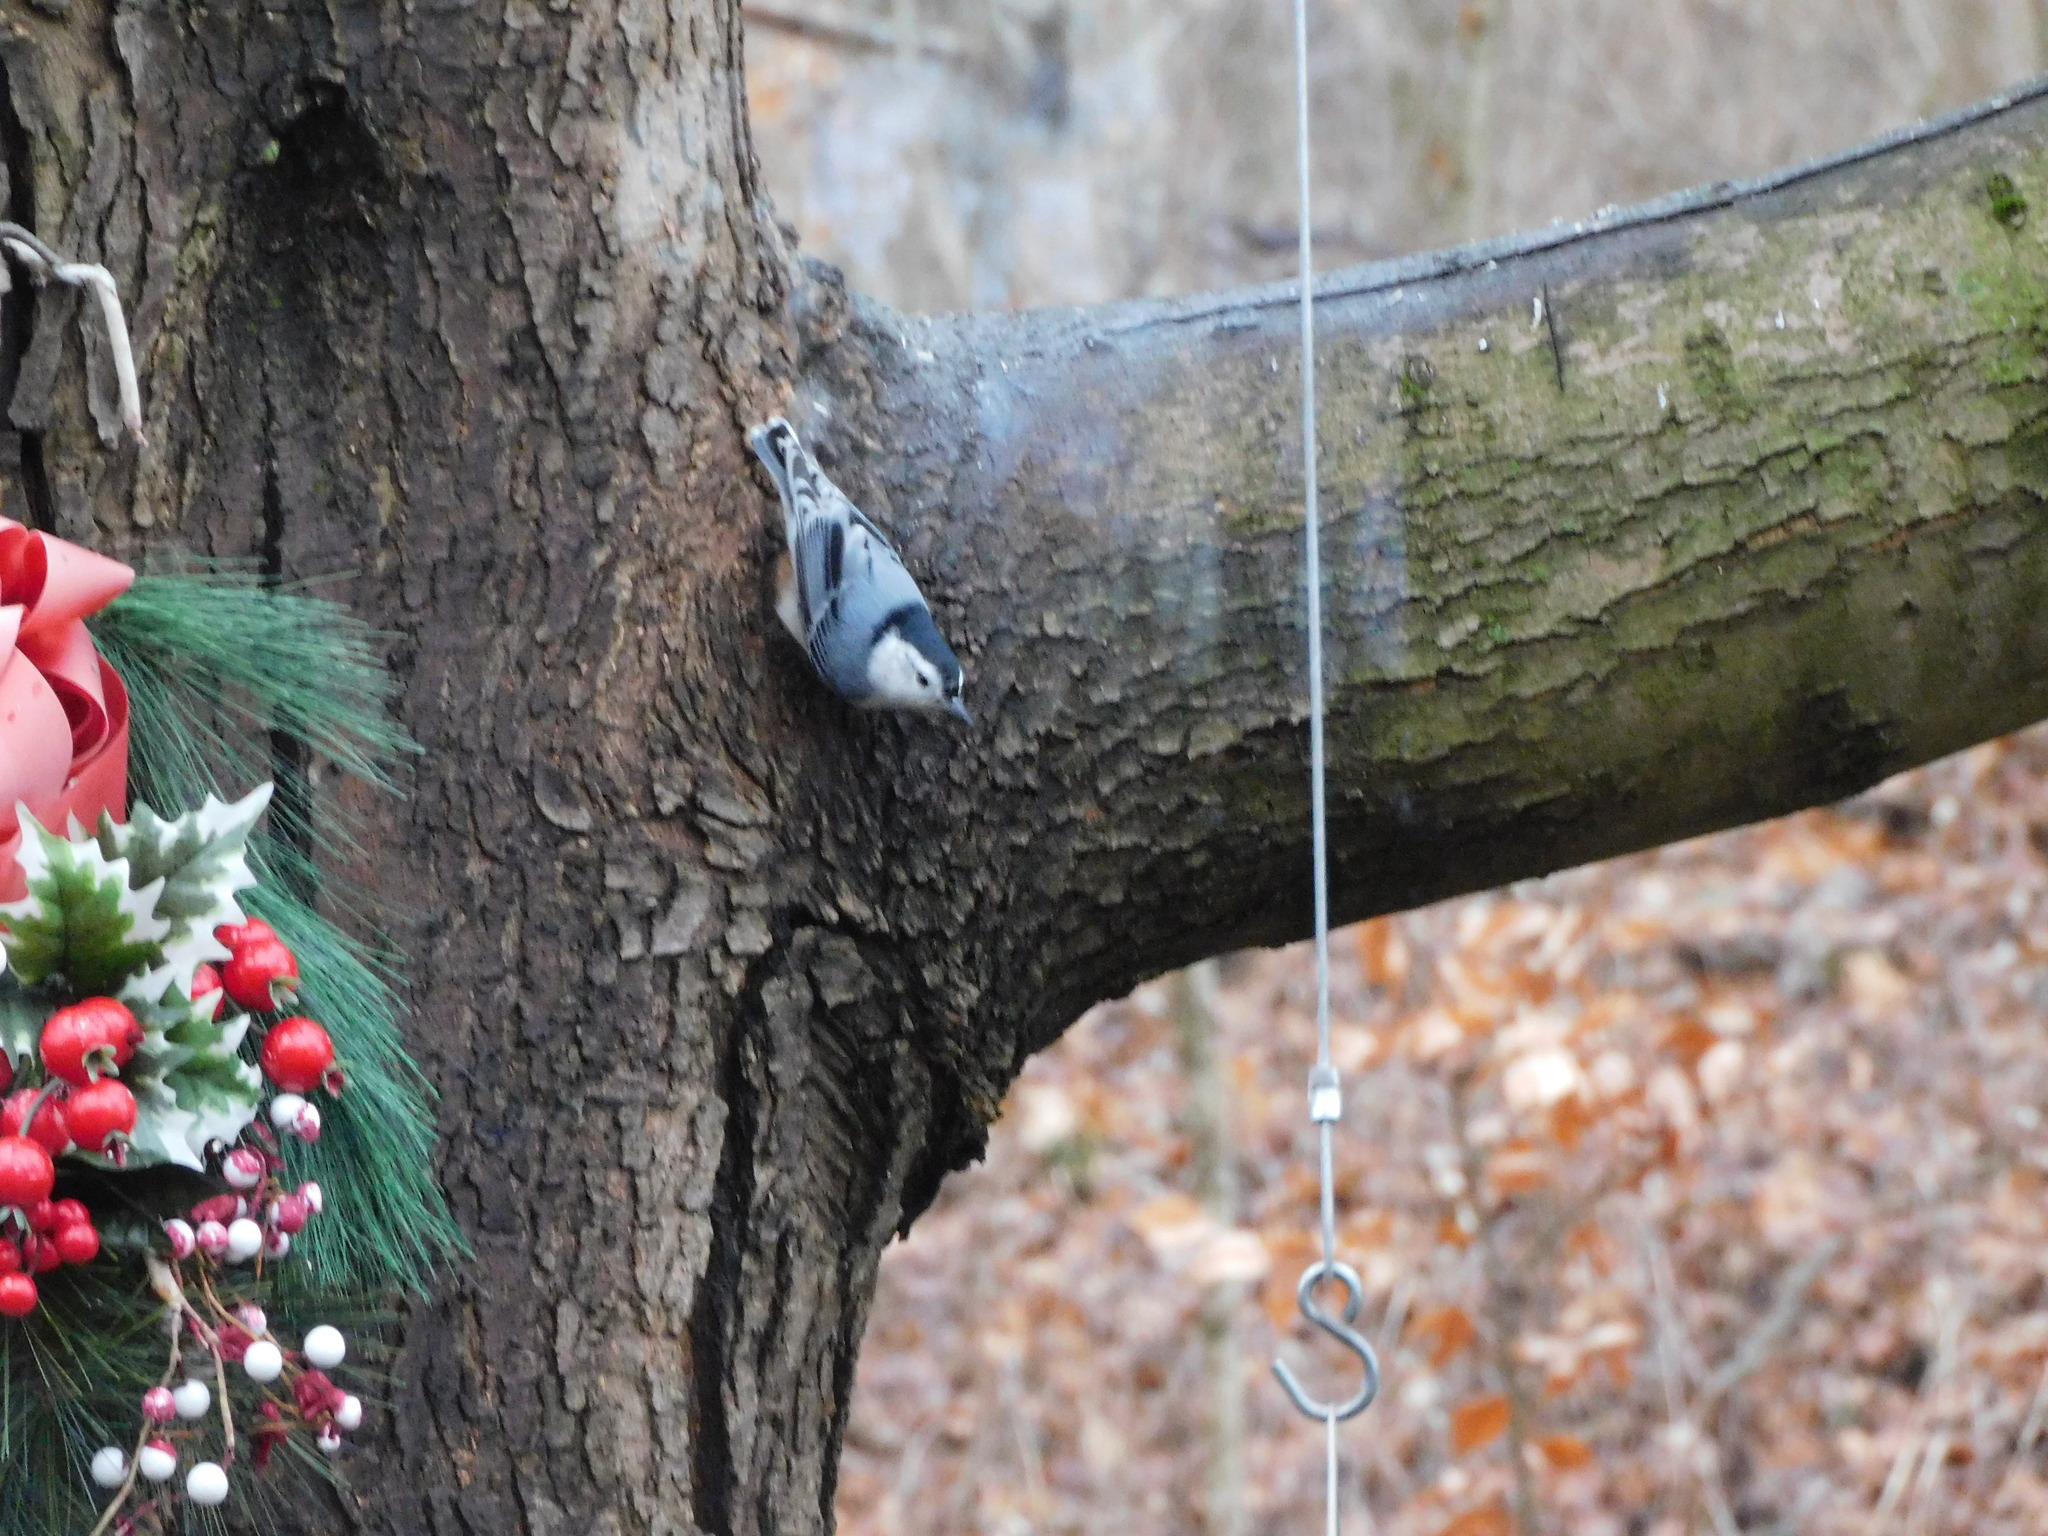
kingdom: Animalia
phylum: Chordata
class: Aves
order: Passeriformes
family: Sittidae
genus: Sitta
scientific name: Sitta carolinensis
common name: White-breasted nuthatch
